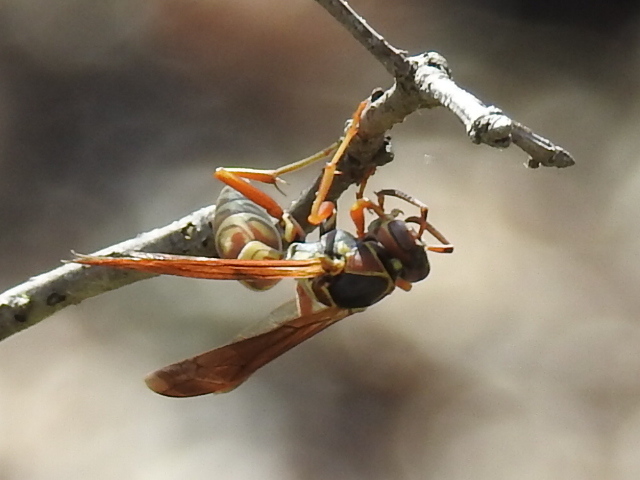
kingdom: Animalia
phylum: Arthropoda
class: Insecta
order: Hymenoptera
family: Eumenidae
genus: Polistes
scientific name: Polistes fuscatus
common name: Dark paper wasp
